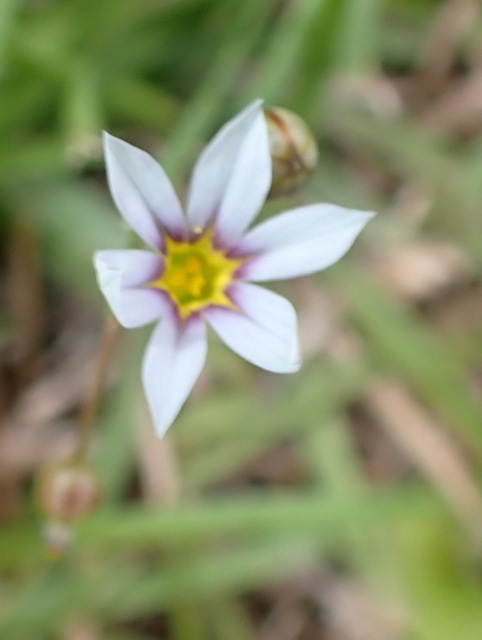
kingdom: Plantae
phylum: Tracheophyta
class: Liliopsida
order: Asparagales
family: Iridaceae
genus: Sisyrinchium
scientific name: Sisyrinchium micranthum
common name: Bermuda pigroot
